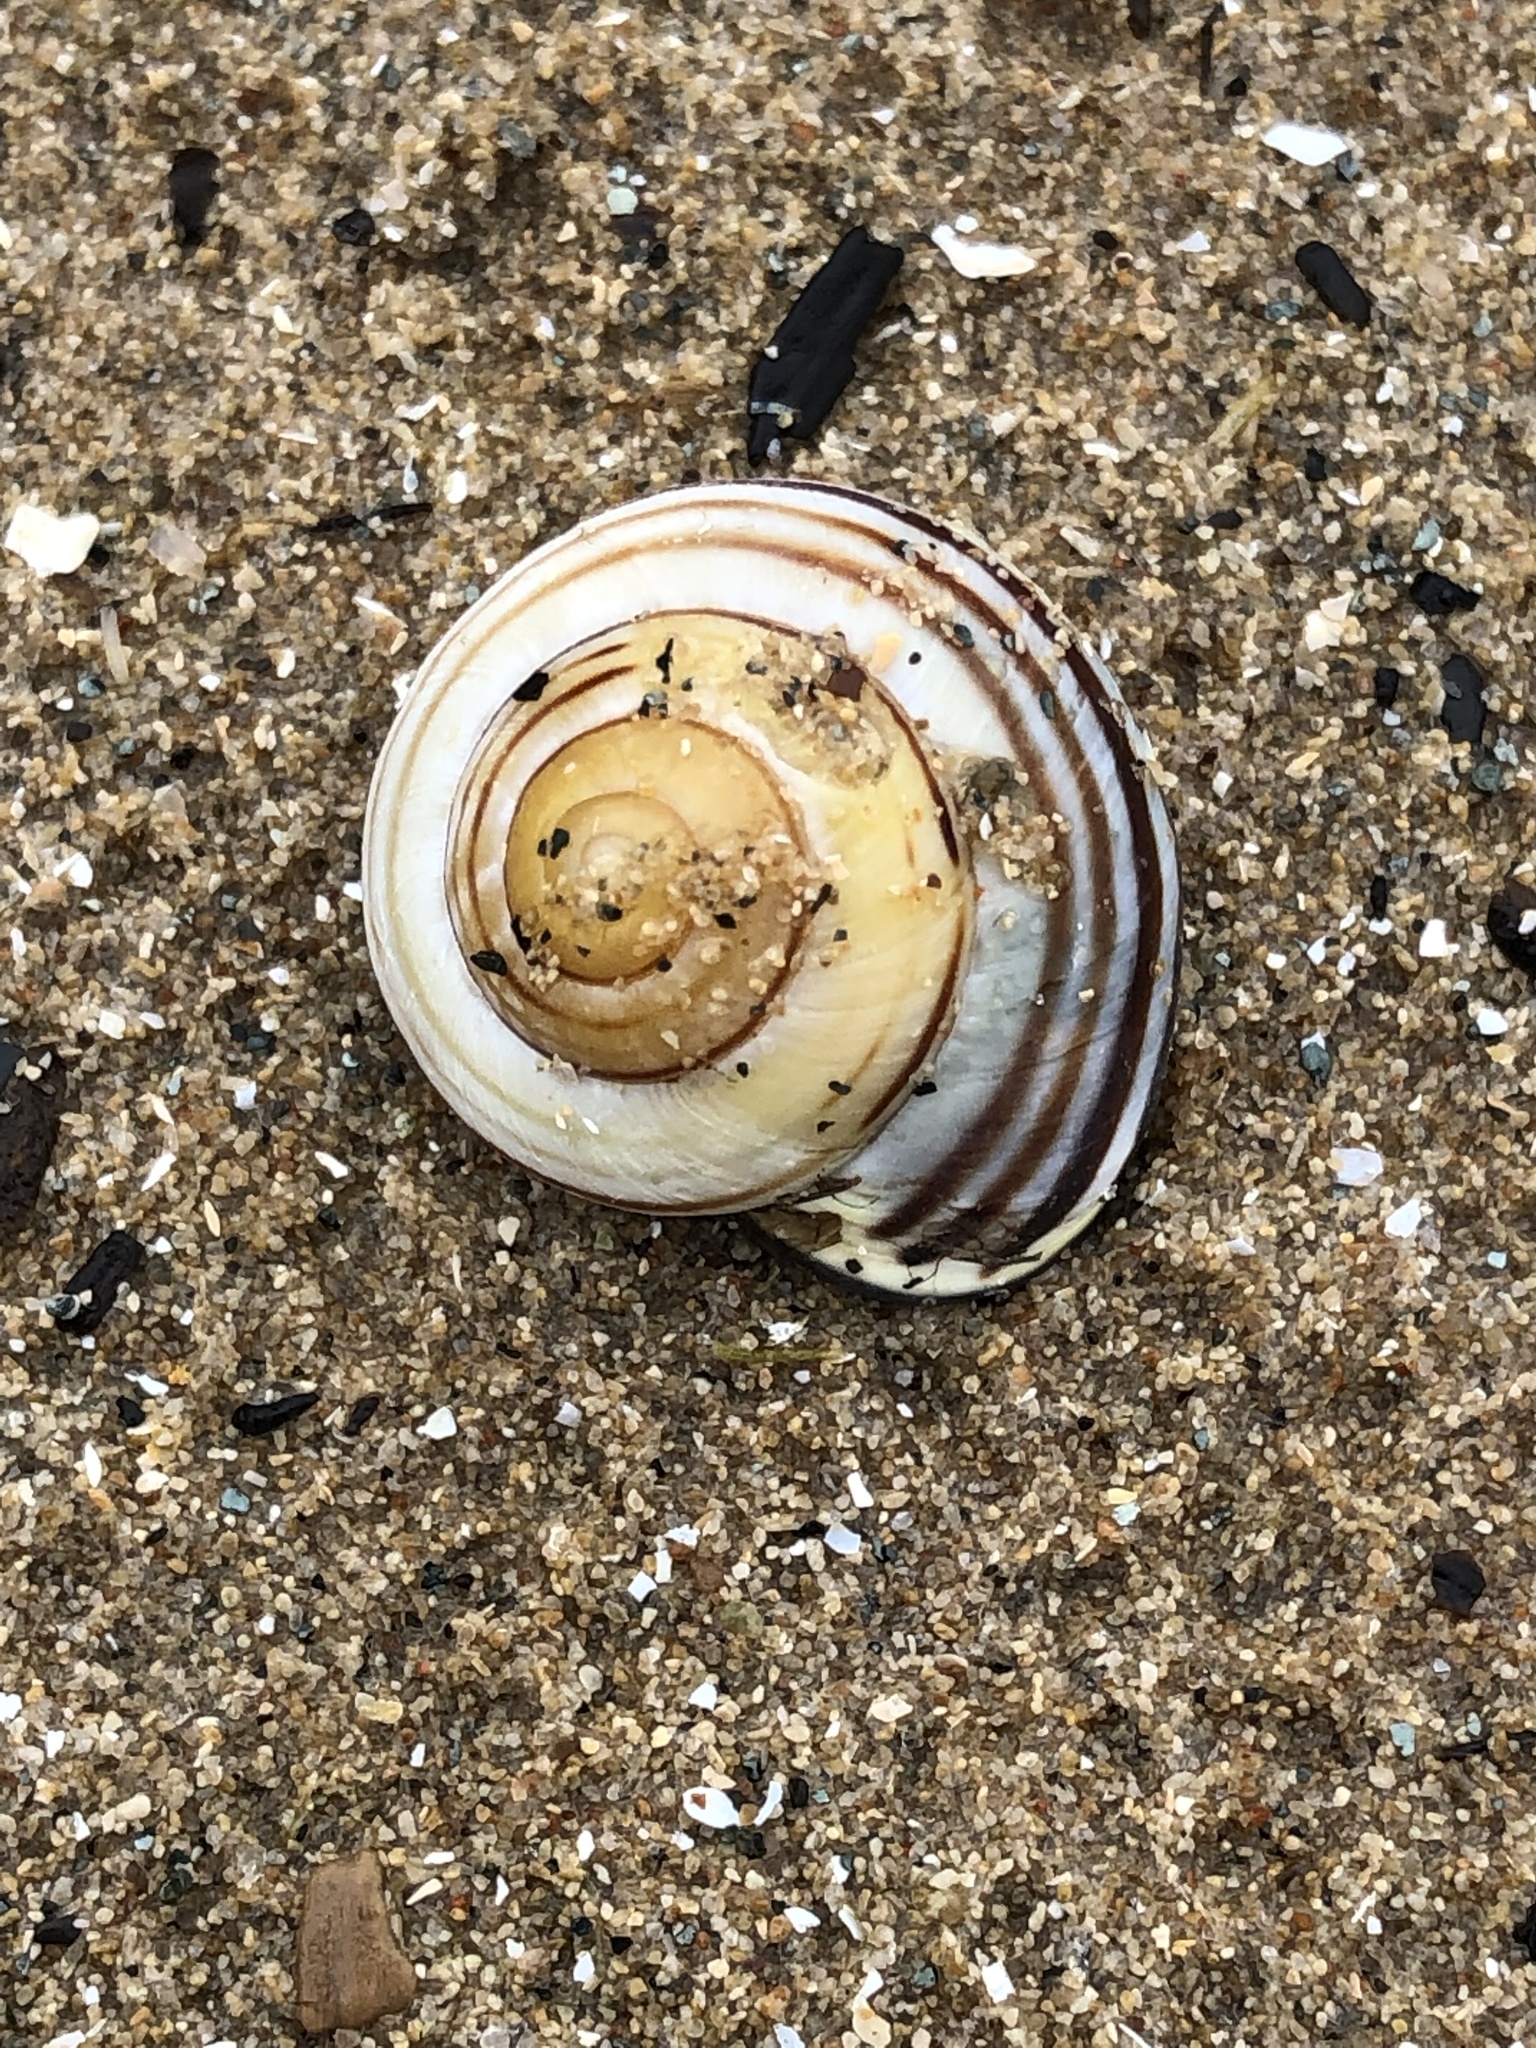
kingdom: Animalia
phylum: Mollusca
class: Gastropoda
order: Stylommatophora
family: Helicidae
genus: Cepaea
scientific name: Cepaea nemoralis
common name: Grovesnail
